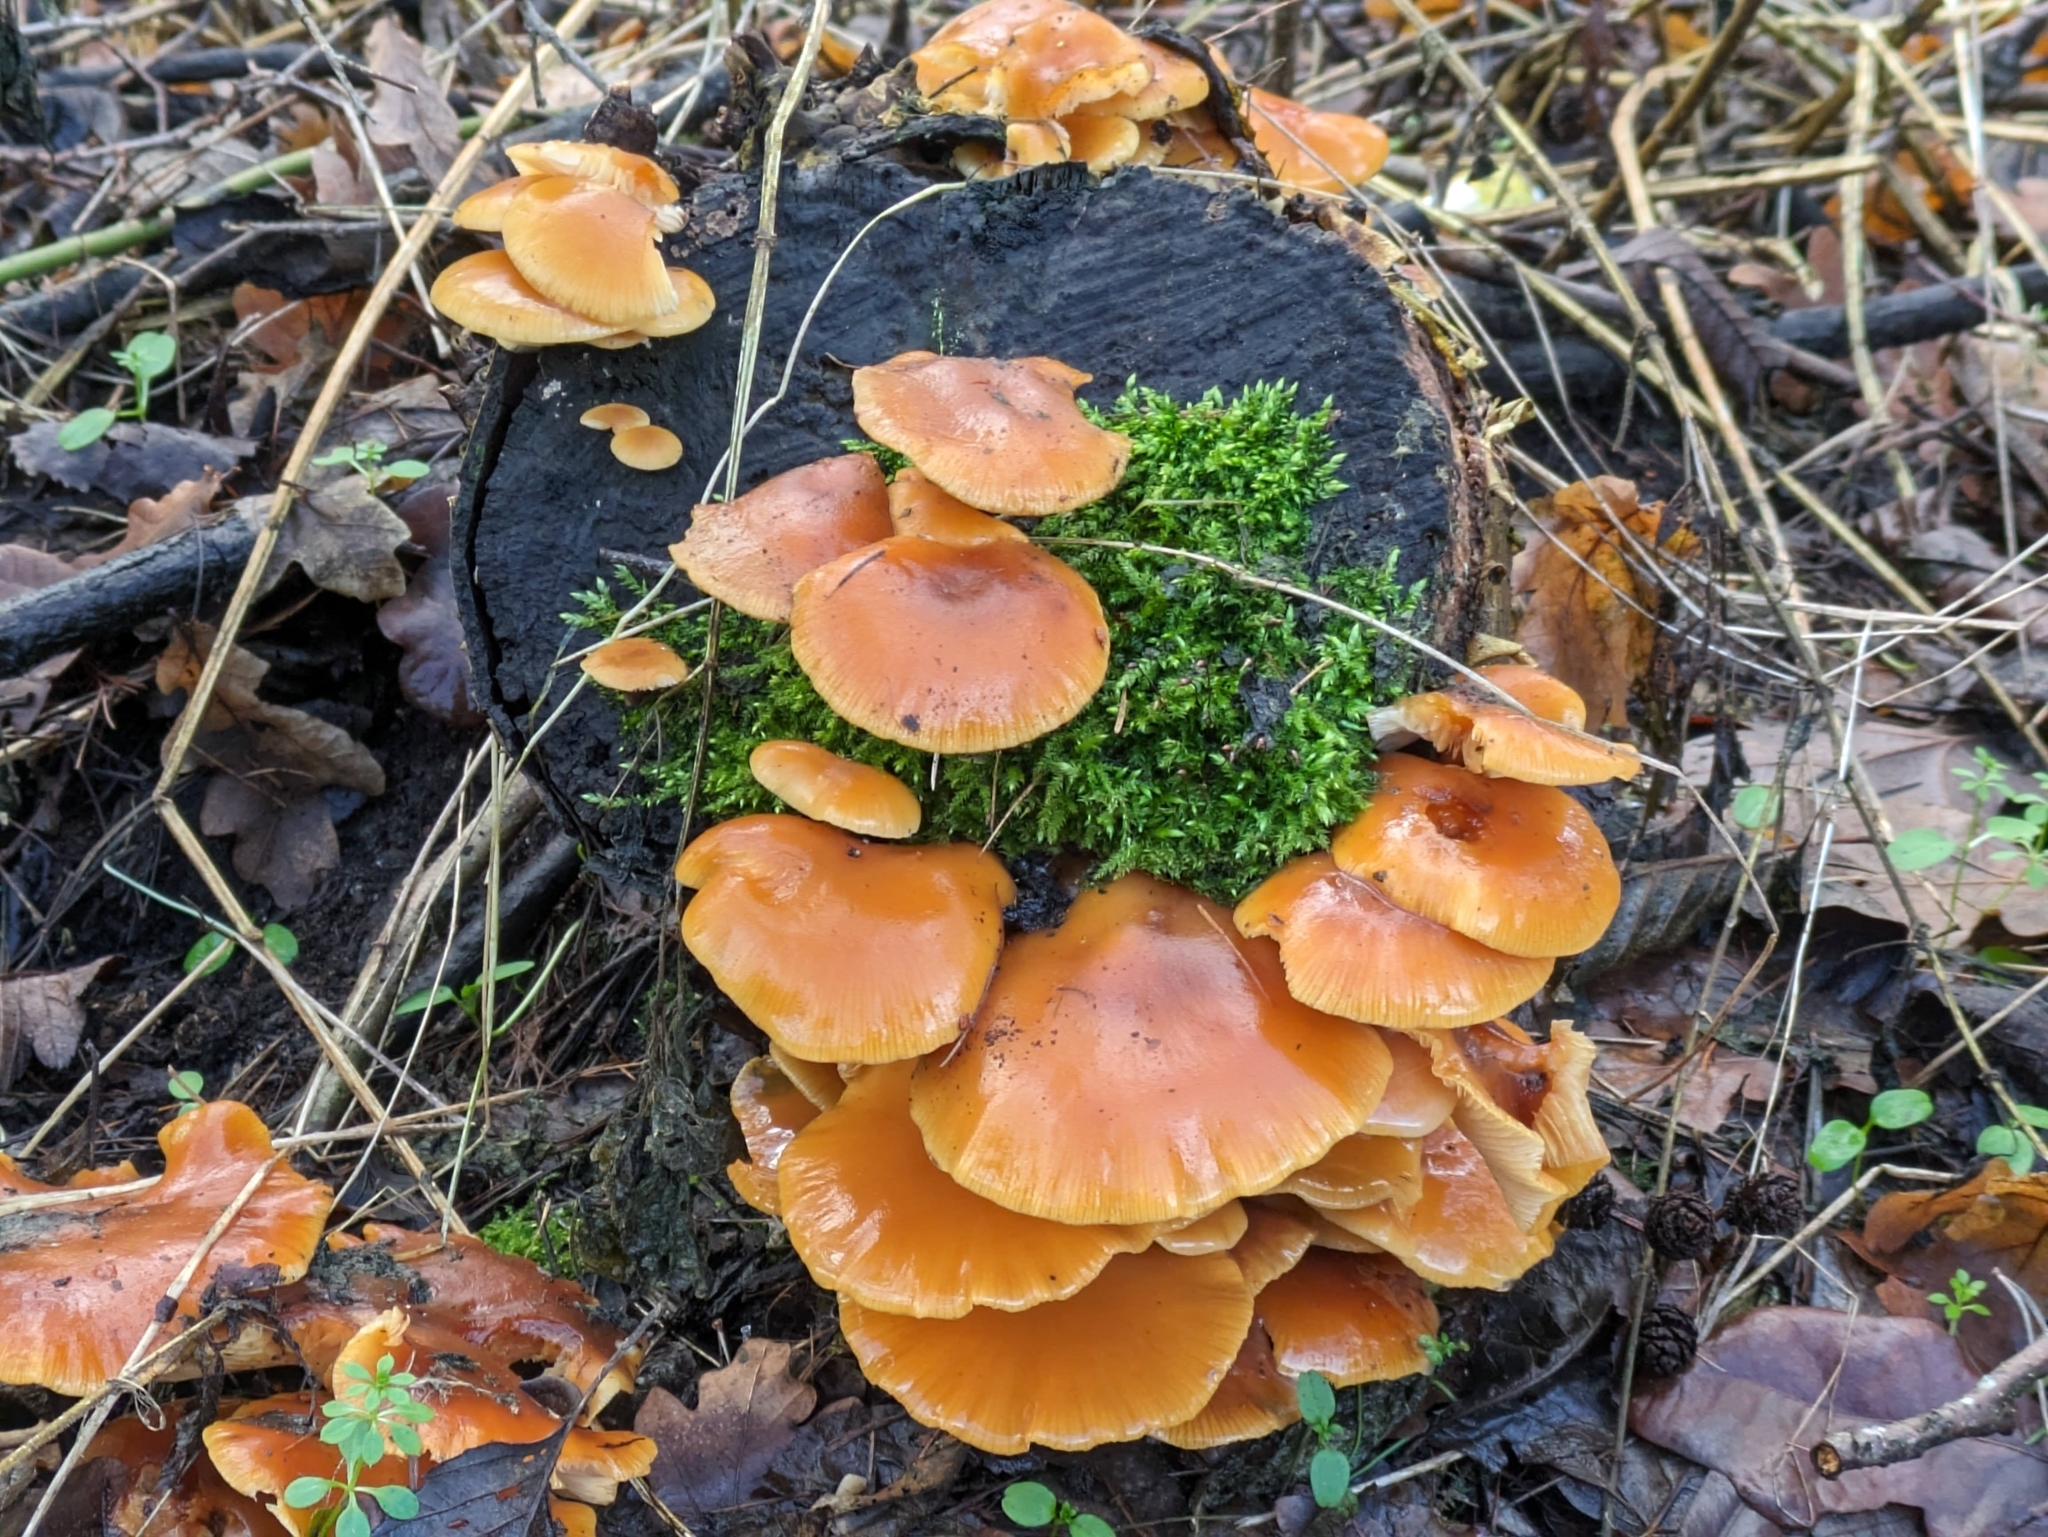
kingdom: Fungi
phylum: Basidiomycota
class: Agaricomycetes
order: Agaricales
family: Physalacriaceae
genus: Flammulina
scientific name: Flammulina
